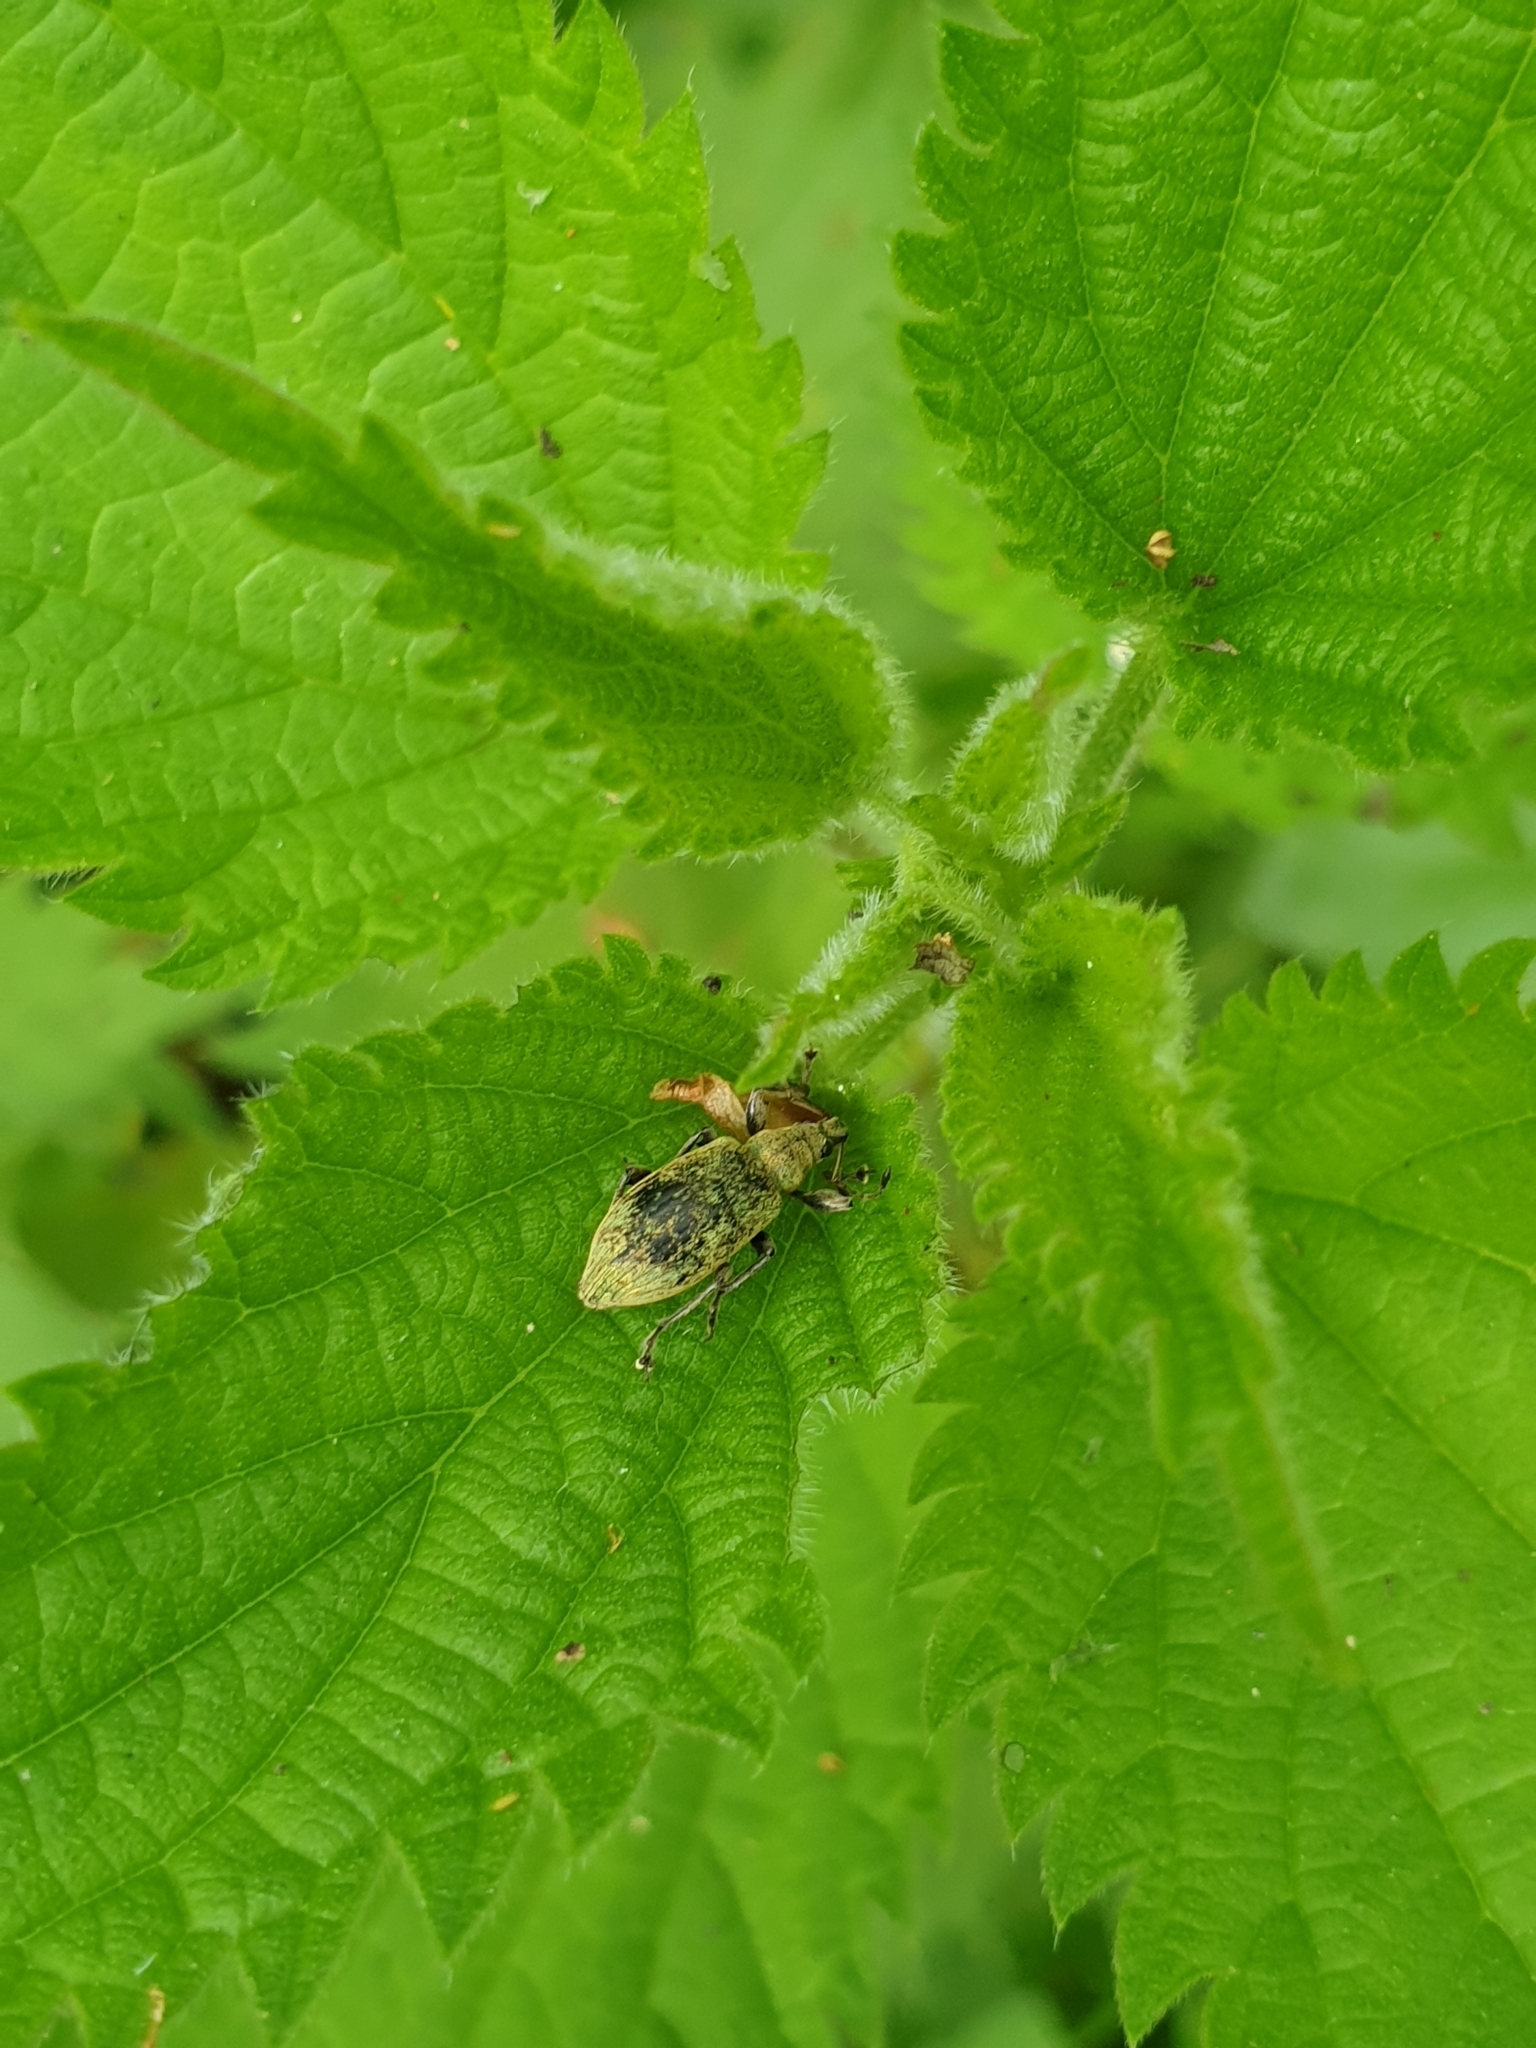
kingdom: Animalia
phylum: Arthropoda
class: Insecta
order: Coleoptera
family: Curculionidae
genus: Phyllobius
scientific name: Phyllobius pomaceus
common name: Green nettle weevil
